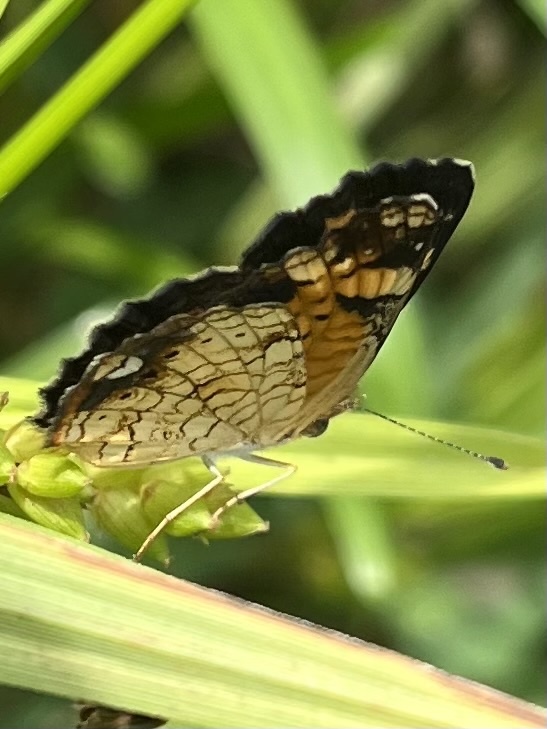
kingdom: Animalia
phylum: Arthropoda
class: Insecta
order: Lepidoptera
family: Nymphalidae
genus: Phyciodes
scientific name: Phyciodes tharos
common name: Pearl crescent
